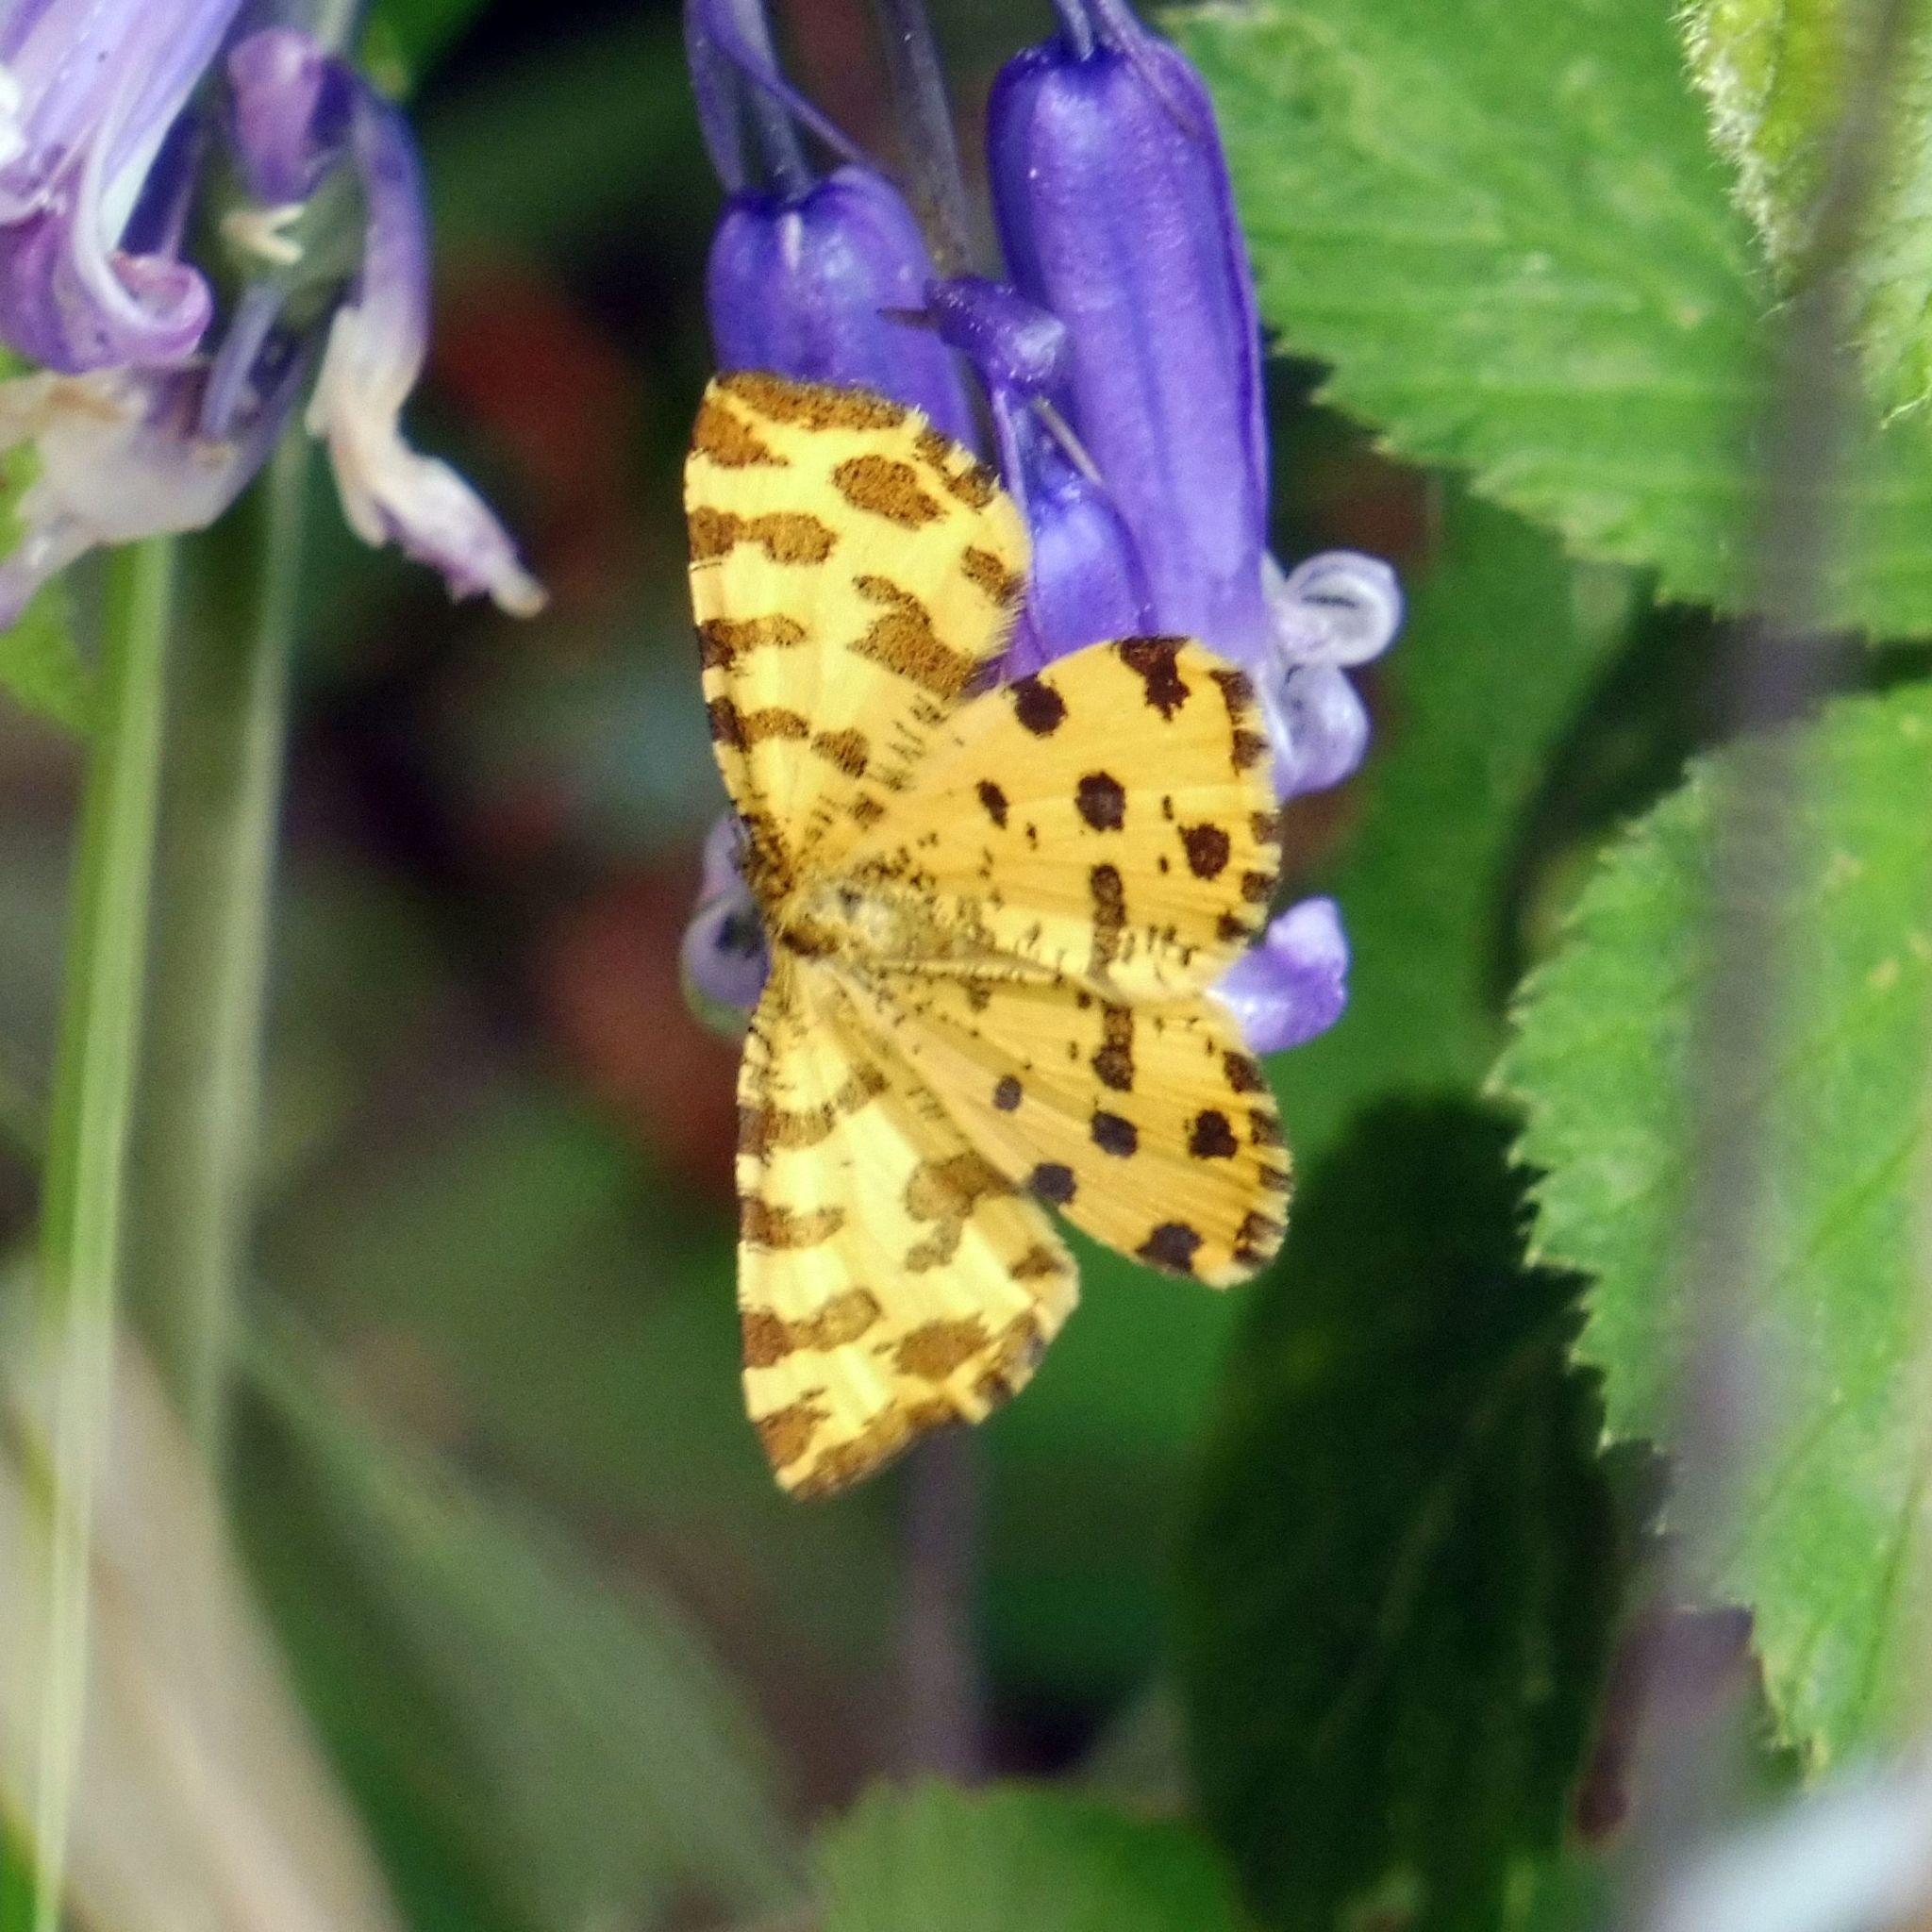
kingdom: Animalia
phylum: Arthropoda
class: Insecta
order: Lepidoptera
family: Geometridae
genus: Pseudopanthera
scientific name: Pseudopanthera macularia
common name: Speckled yellow
